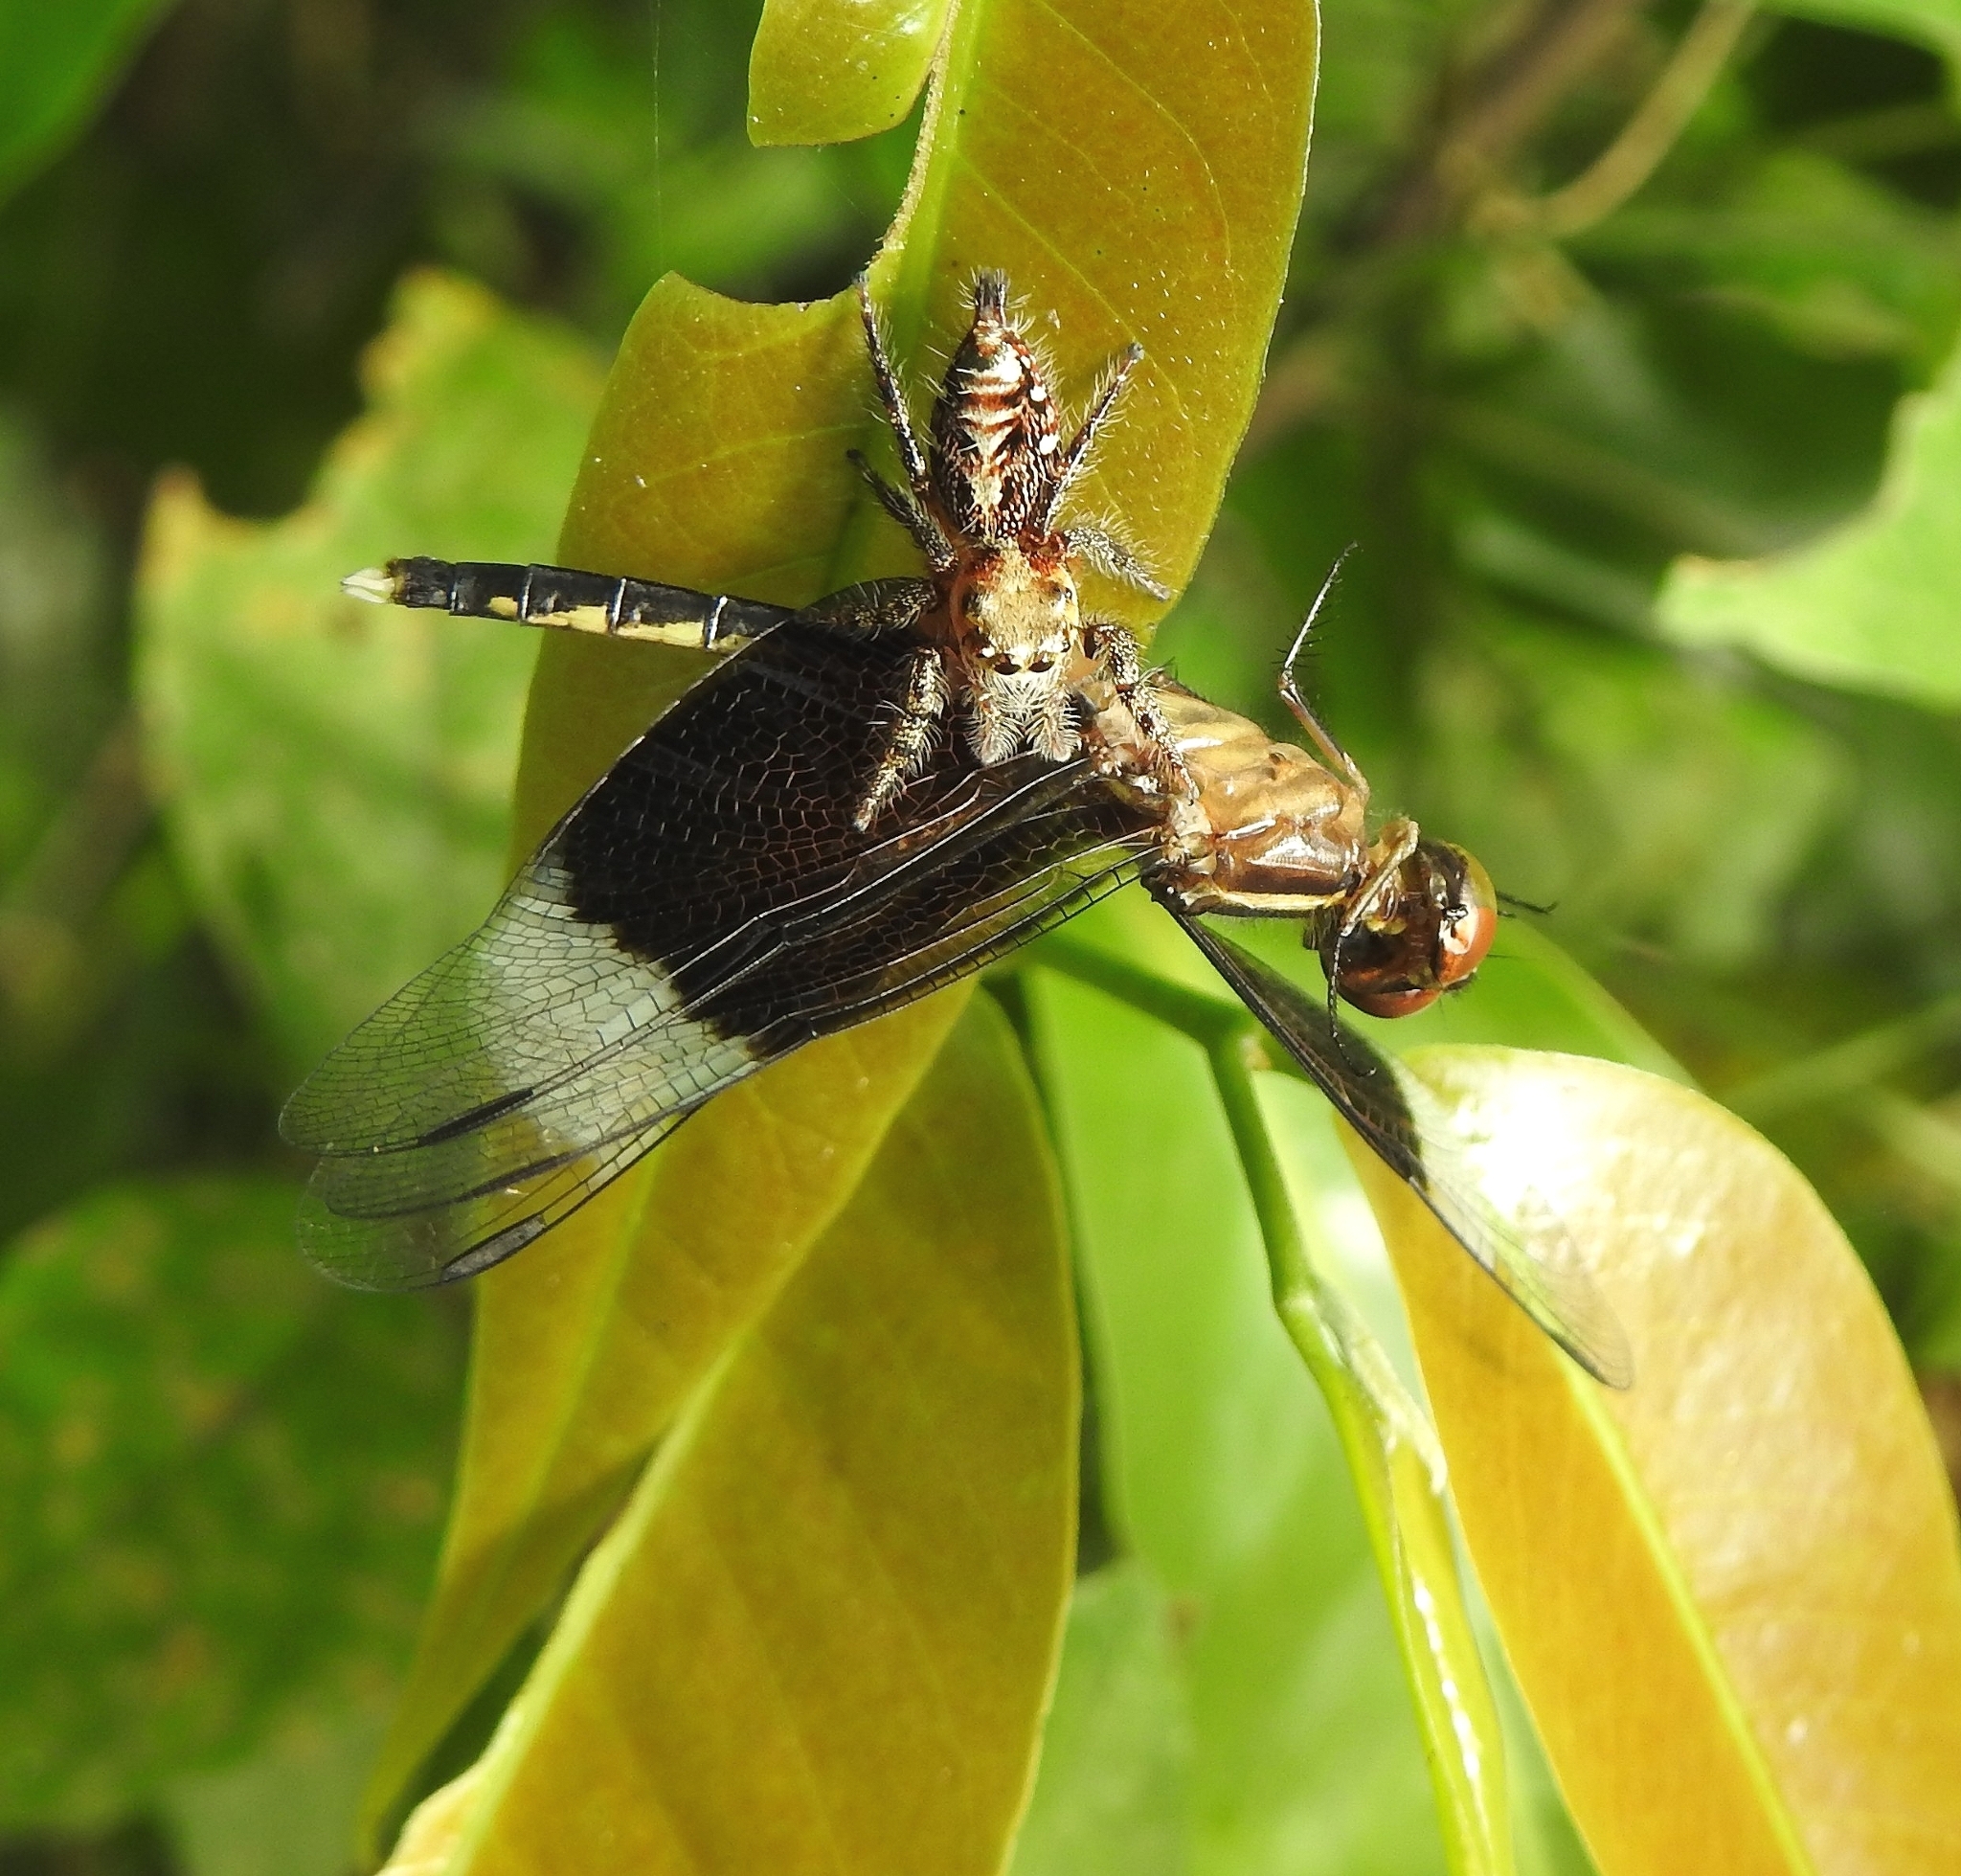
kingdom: Animalia
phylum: Arthropoda
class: Insecta
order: Odonata
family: Libellulidae
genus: Neurothemis
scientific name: Neurothemis tullia
